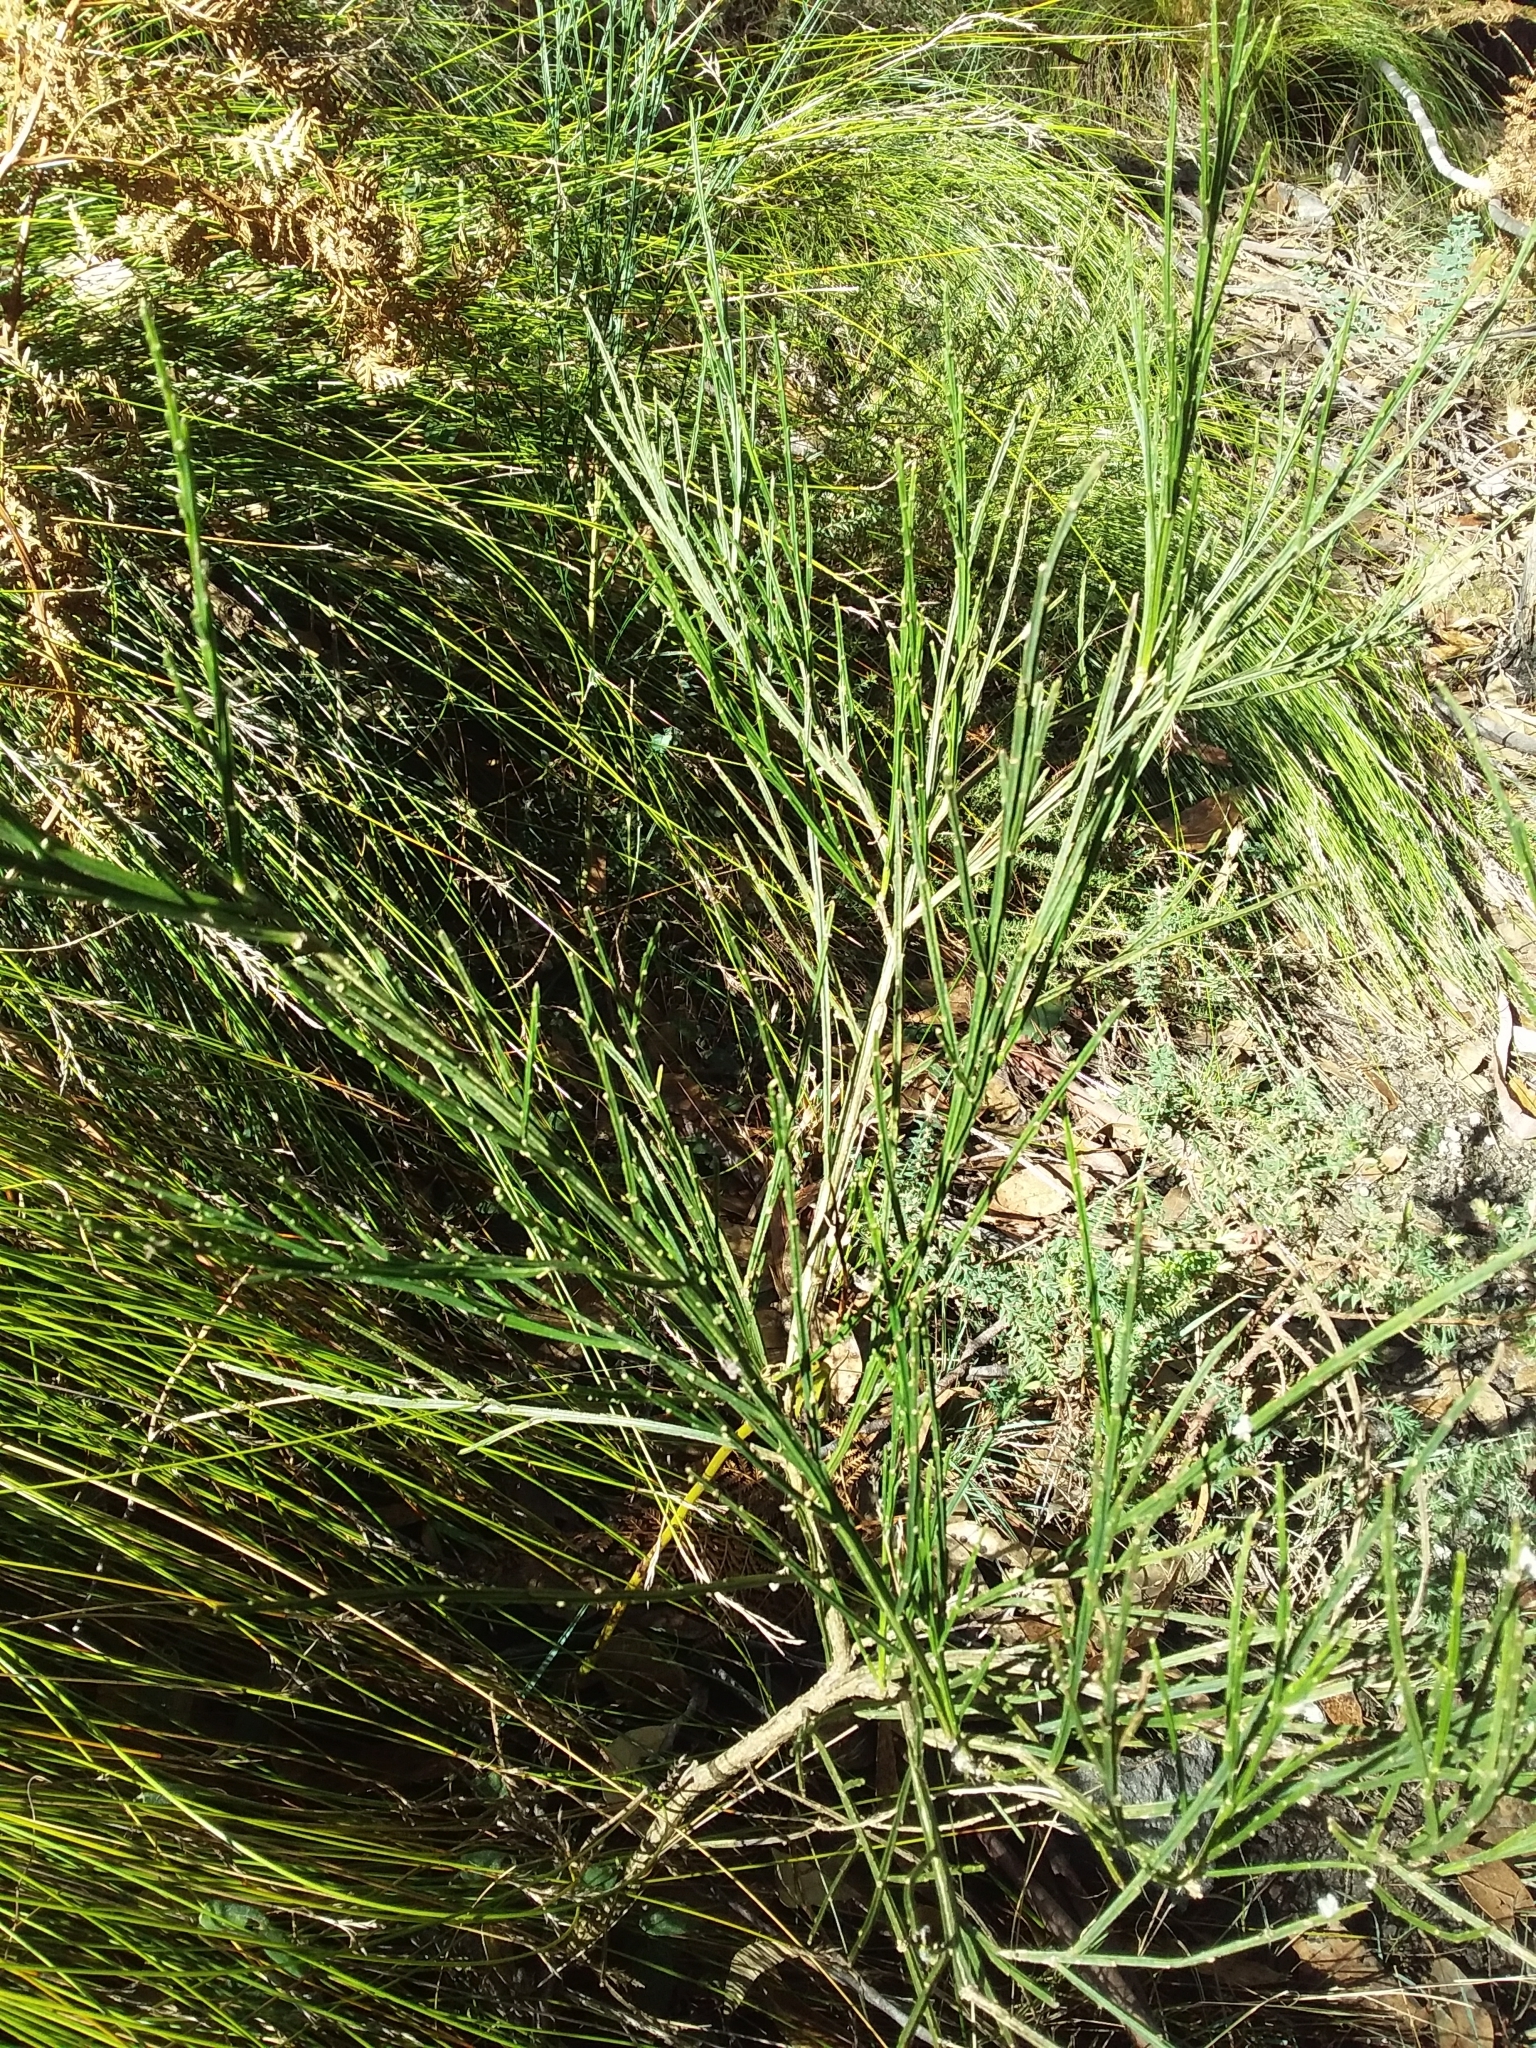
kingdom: Plantae
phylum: Tracheophyta
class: Magnoliopsida
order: Fabales
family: Fabaceae
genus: Cytisus
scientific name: Cytisus scoparius
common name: Scotch broom
